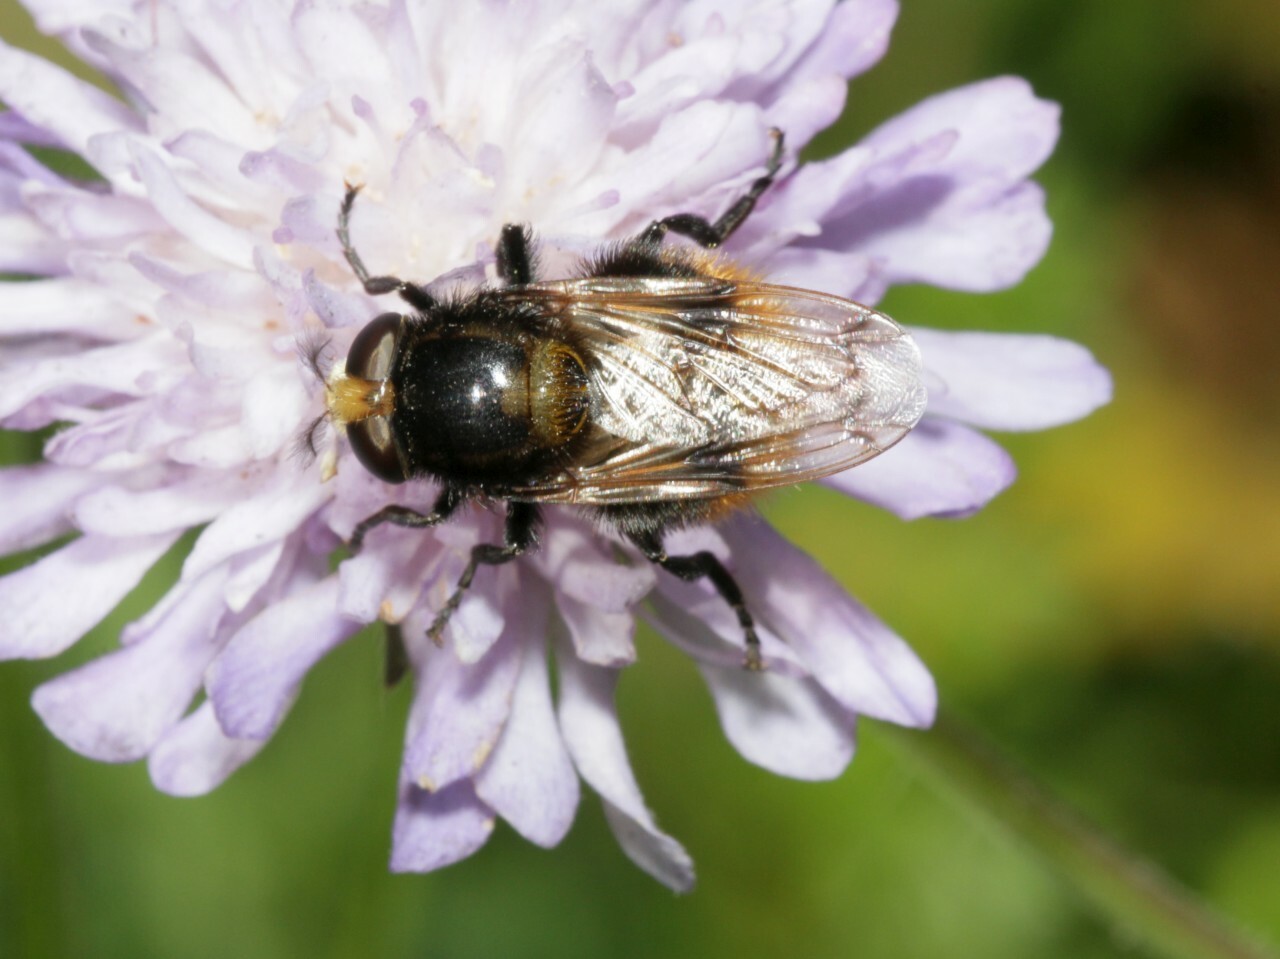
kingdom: Animalia
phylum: Arthropoda
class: Insecta
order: Diptera
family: Syrphidae
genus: Volucella
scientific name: Volucella bombylans
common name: Bumble bee hover fly
